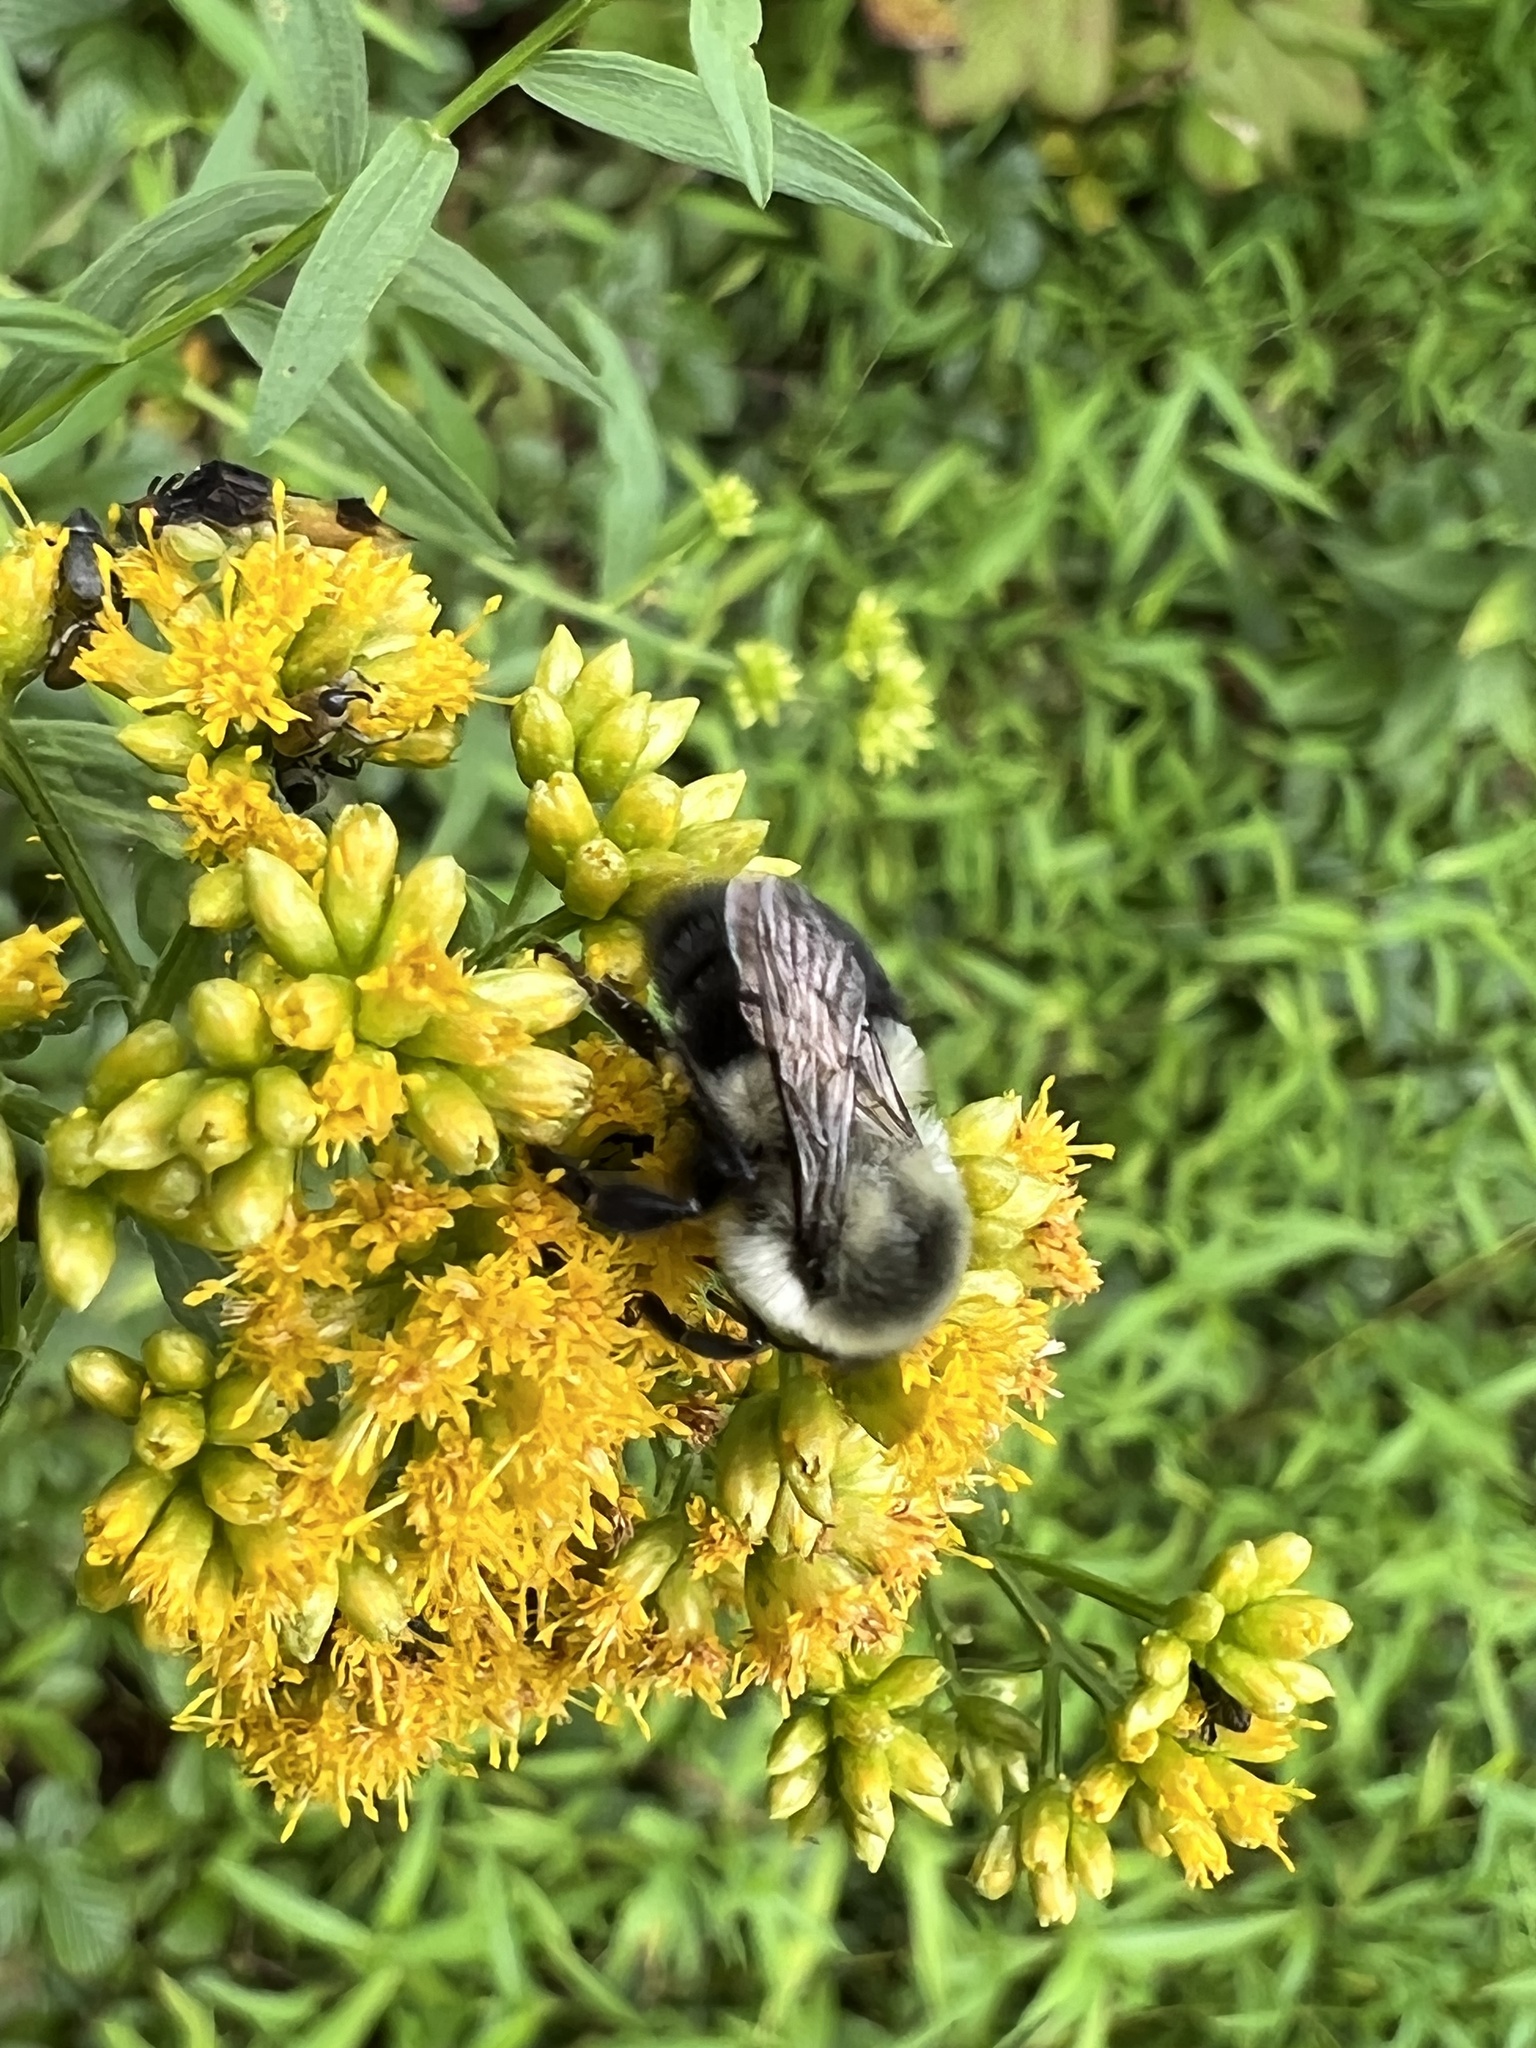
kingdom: Animalia
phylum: Arthropoda
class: Insecta
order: Hymenoptera
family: Apidae
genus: Bombus
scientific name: Bombus impatiens
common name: Common eastern bumble bee
